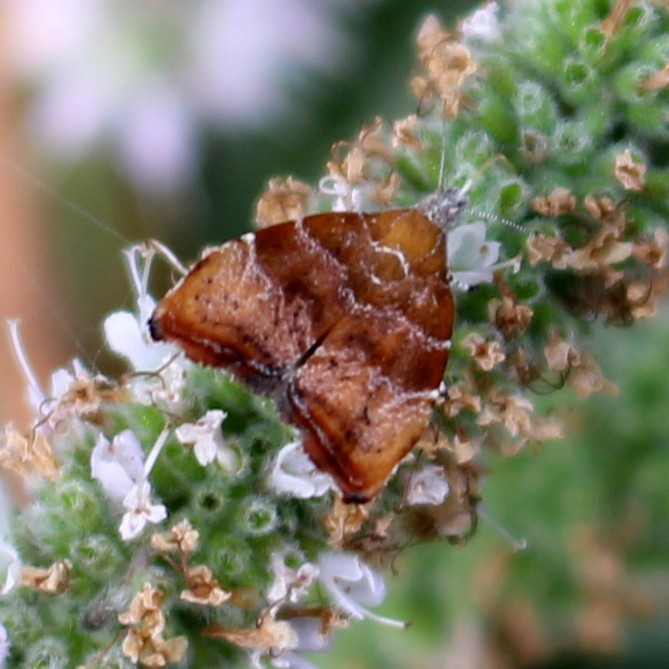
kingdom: Animalia
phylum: Arthropoda
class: Insecta
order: Lepidoptera
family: Choreutidae
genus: Anthophila
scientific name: Anthophila nemorana
